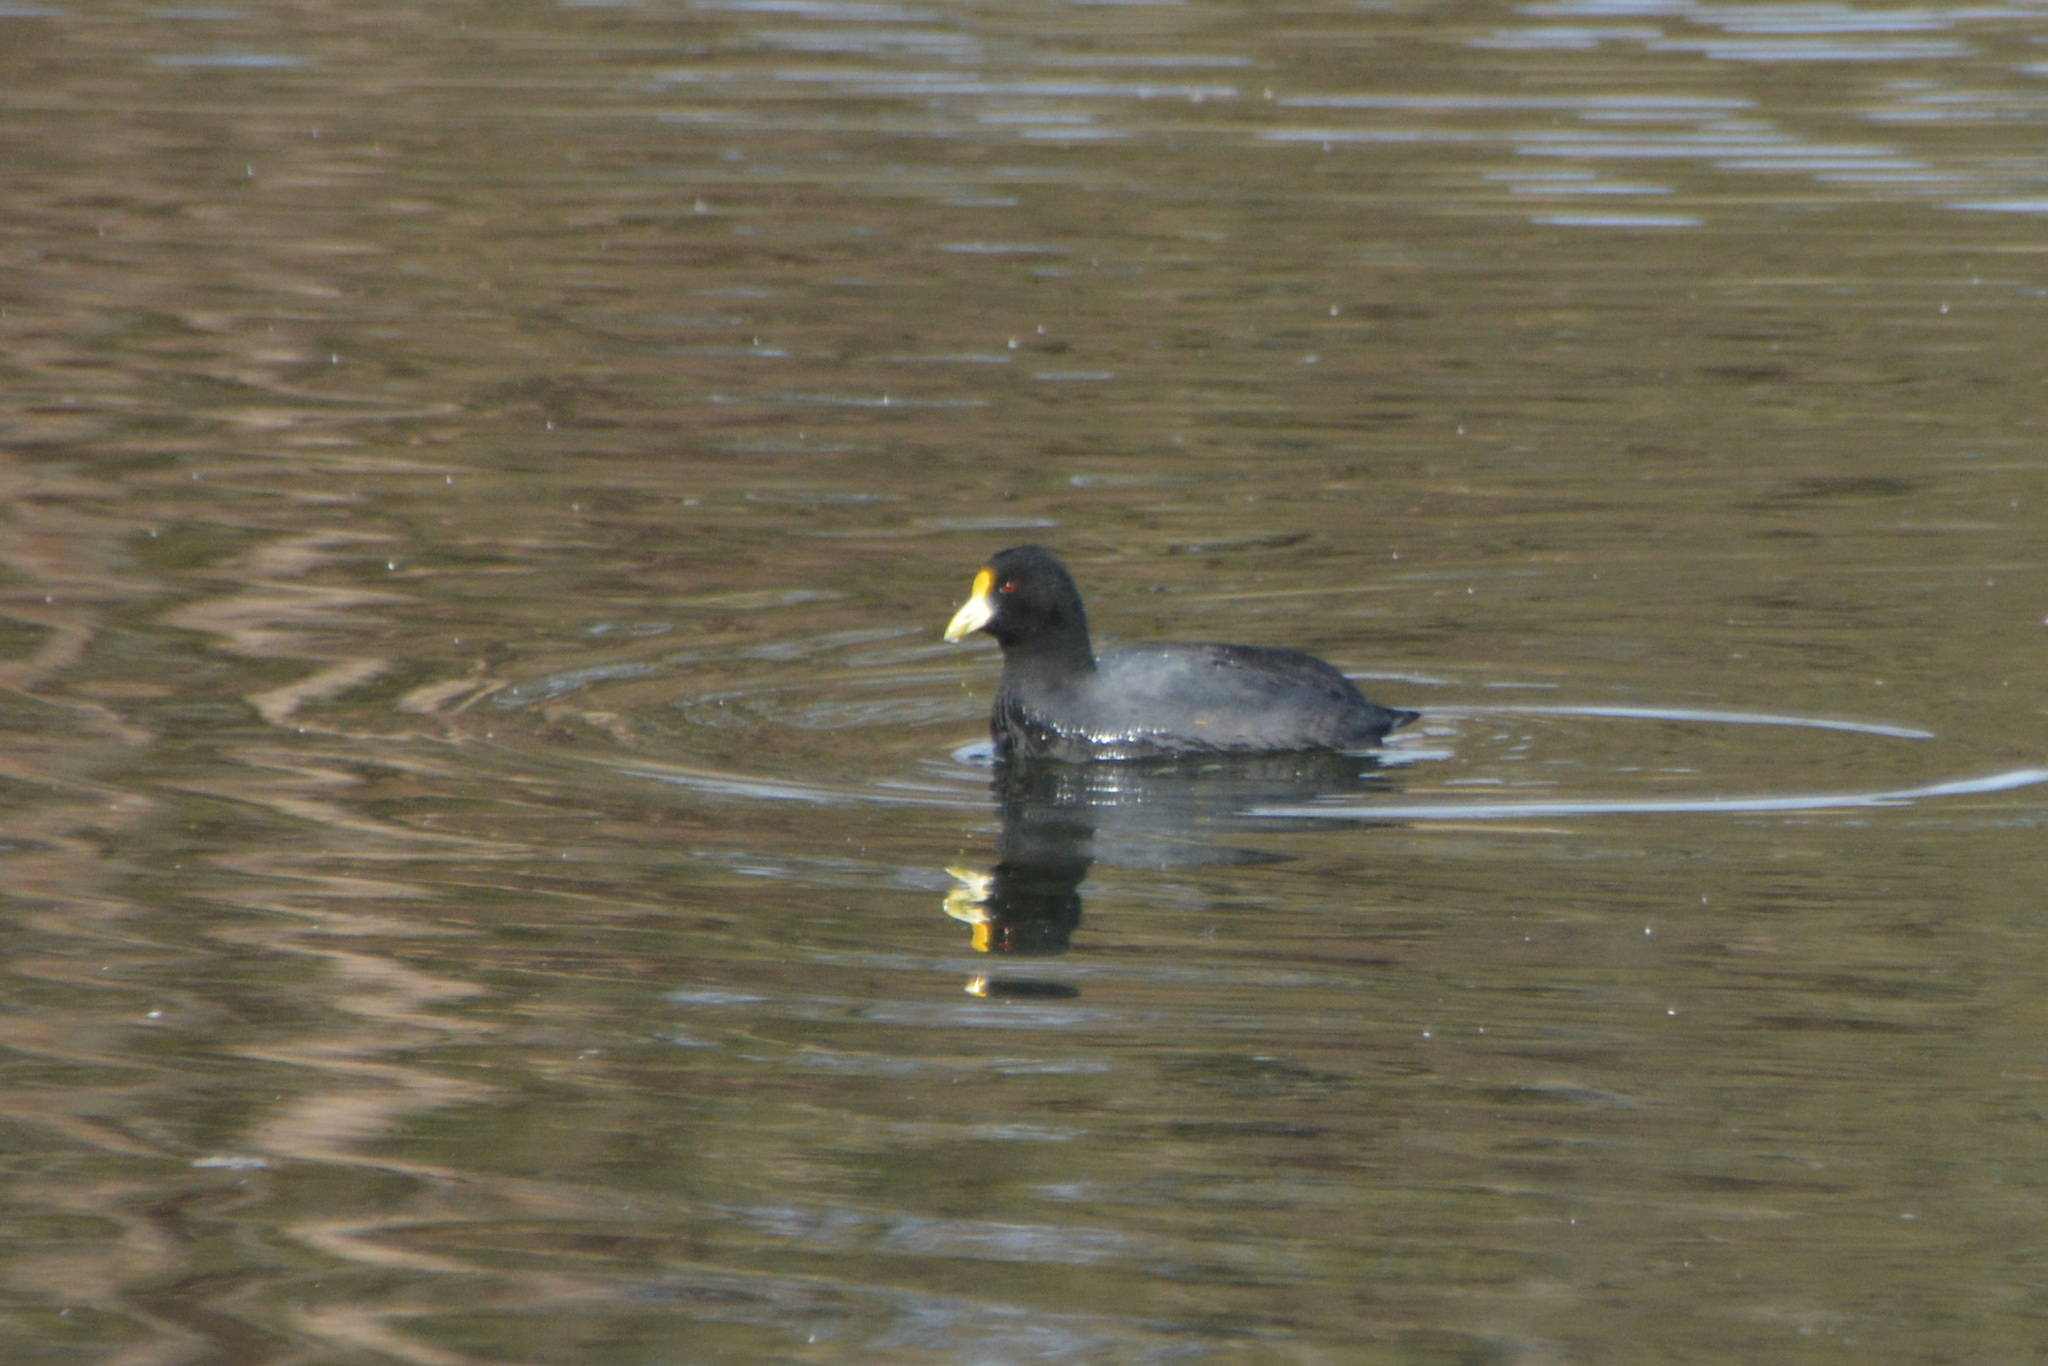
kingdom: Animalia
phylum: Chordata
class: Aves
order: Gruiformes
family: Rallidae
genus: Fulica
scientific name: Fulica leucoptera
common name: White-winged coot
